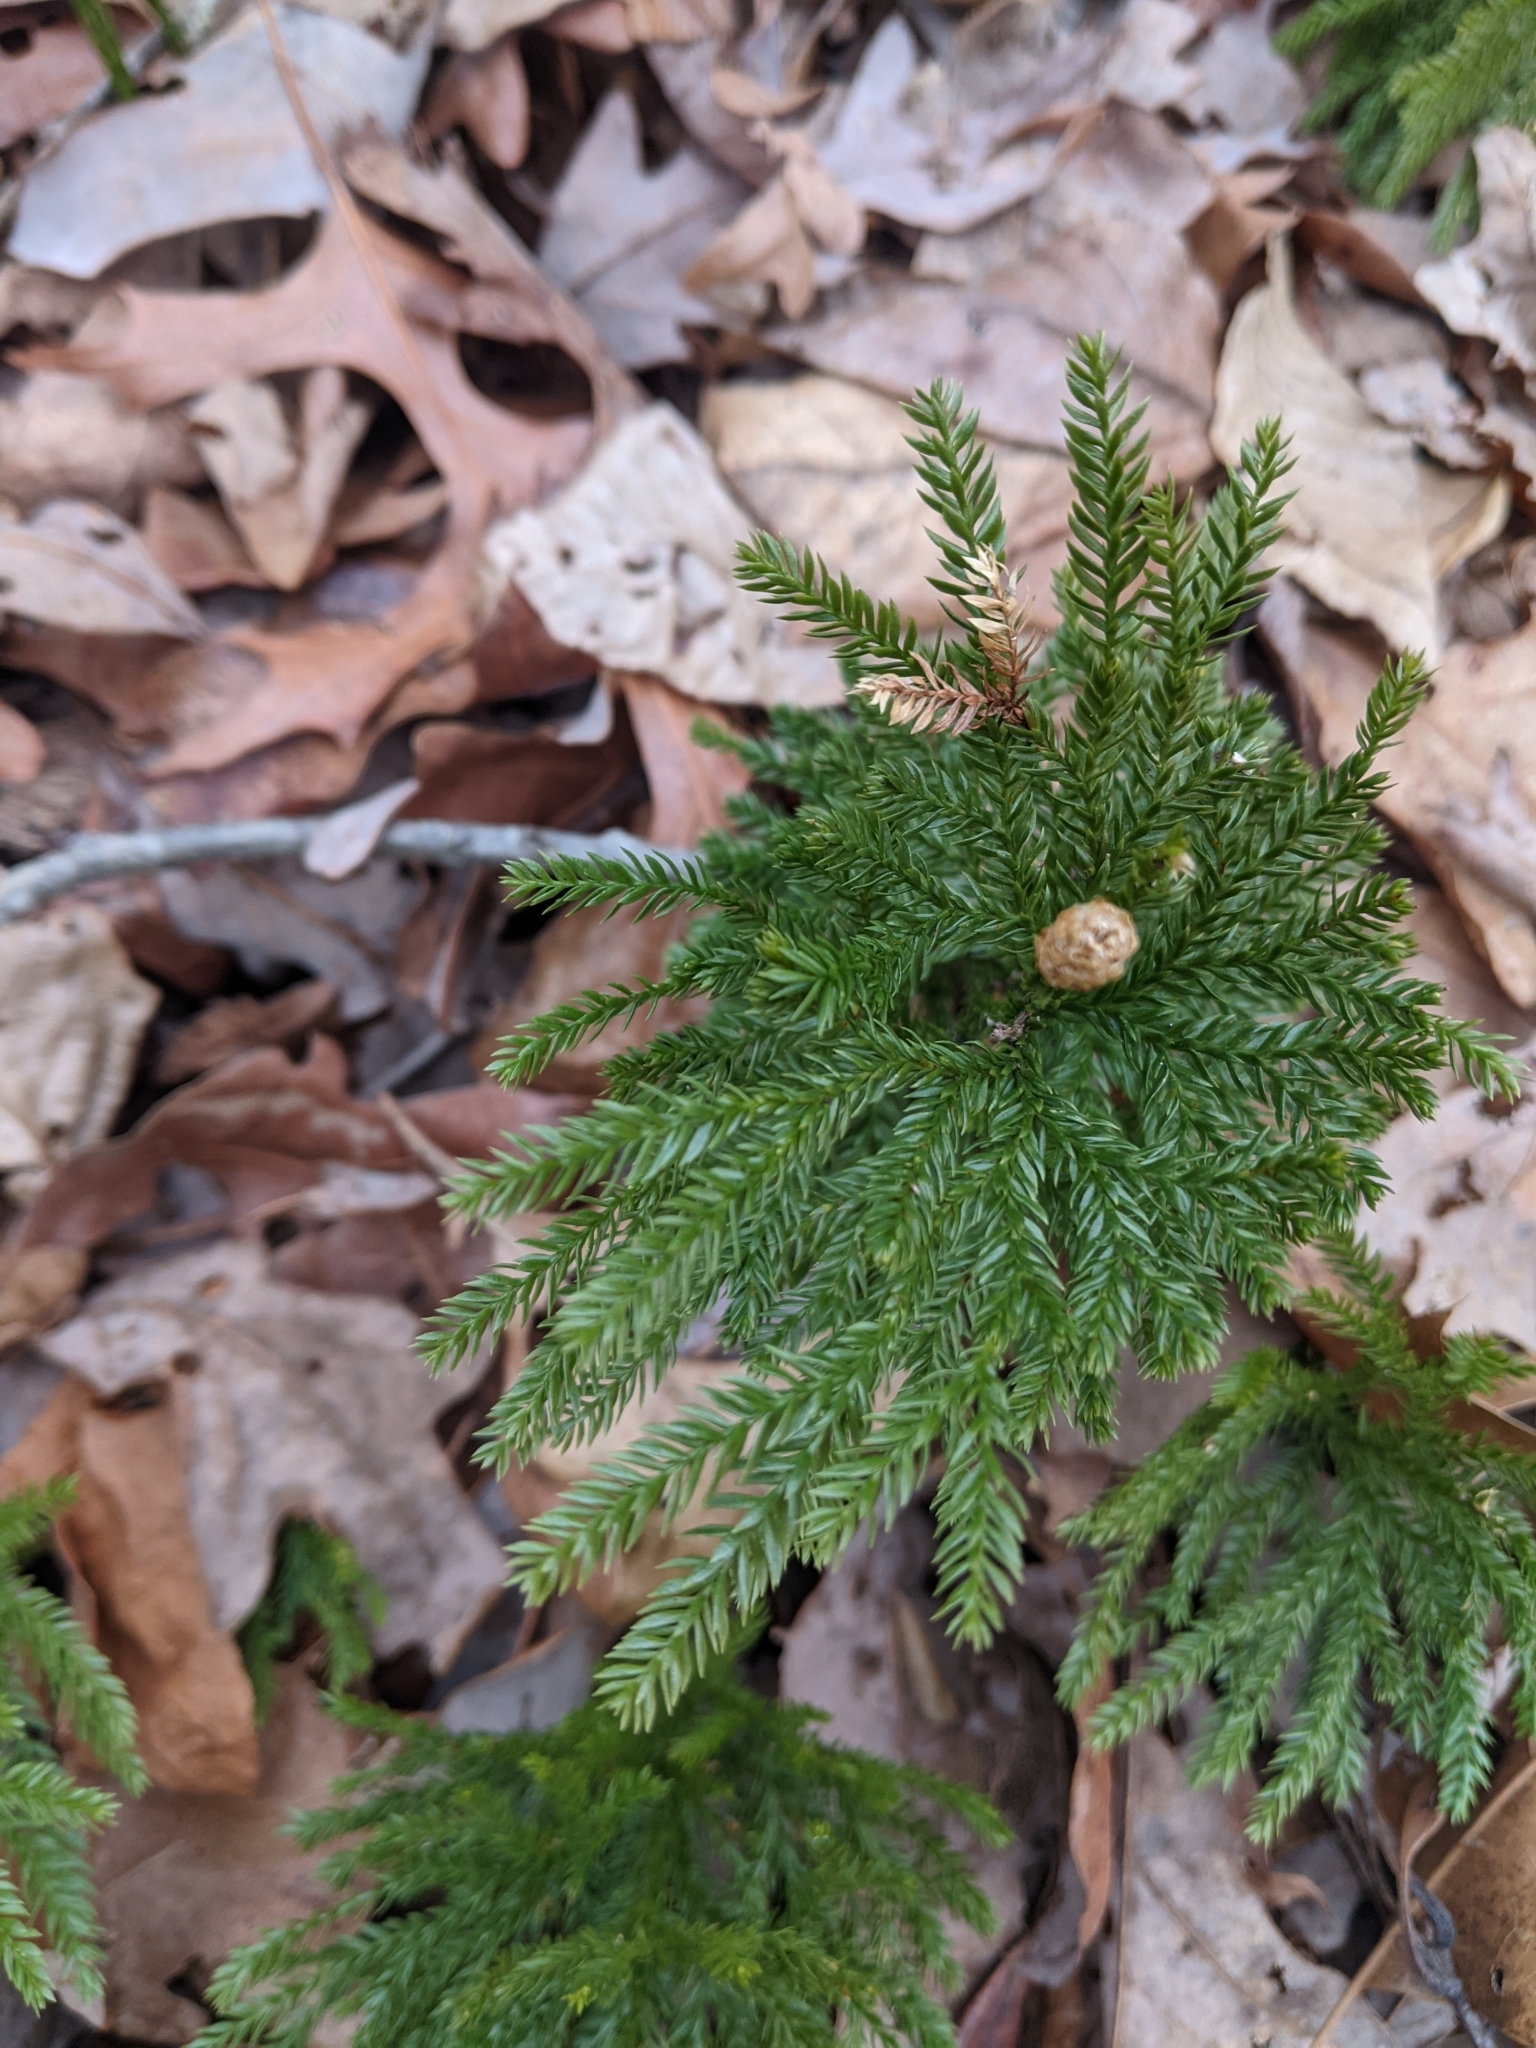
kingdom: Plantae
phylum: Tracheophyta
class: Lycopodiopsida
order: Lycopodiales
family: Lycopodiaceae
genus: Dendrolycopodium
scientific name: Dendrolycopodium obscurum
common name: Common ground-pine
